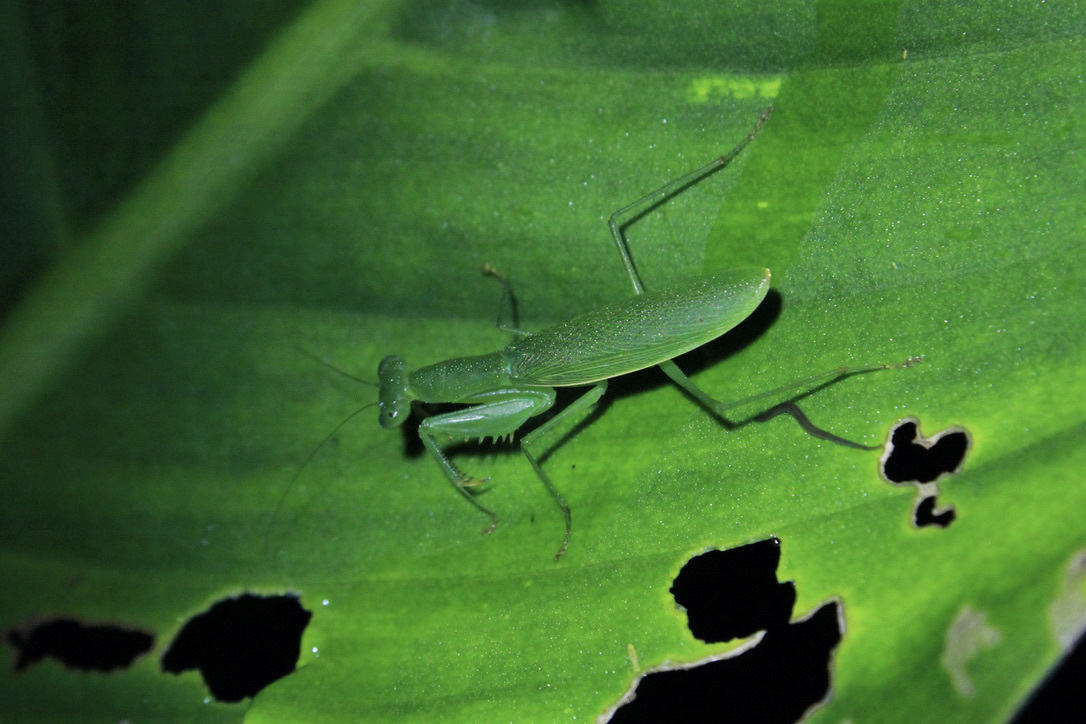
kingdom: Animalia
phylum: Arthropoda
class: Insecta
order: Mantodea
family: Acanthopidae
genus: Tithrone
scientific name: Tithrone roseipennis
